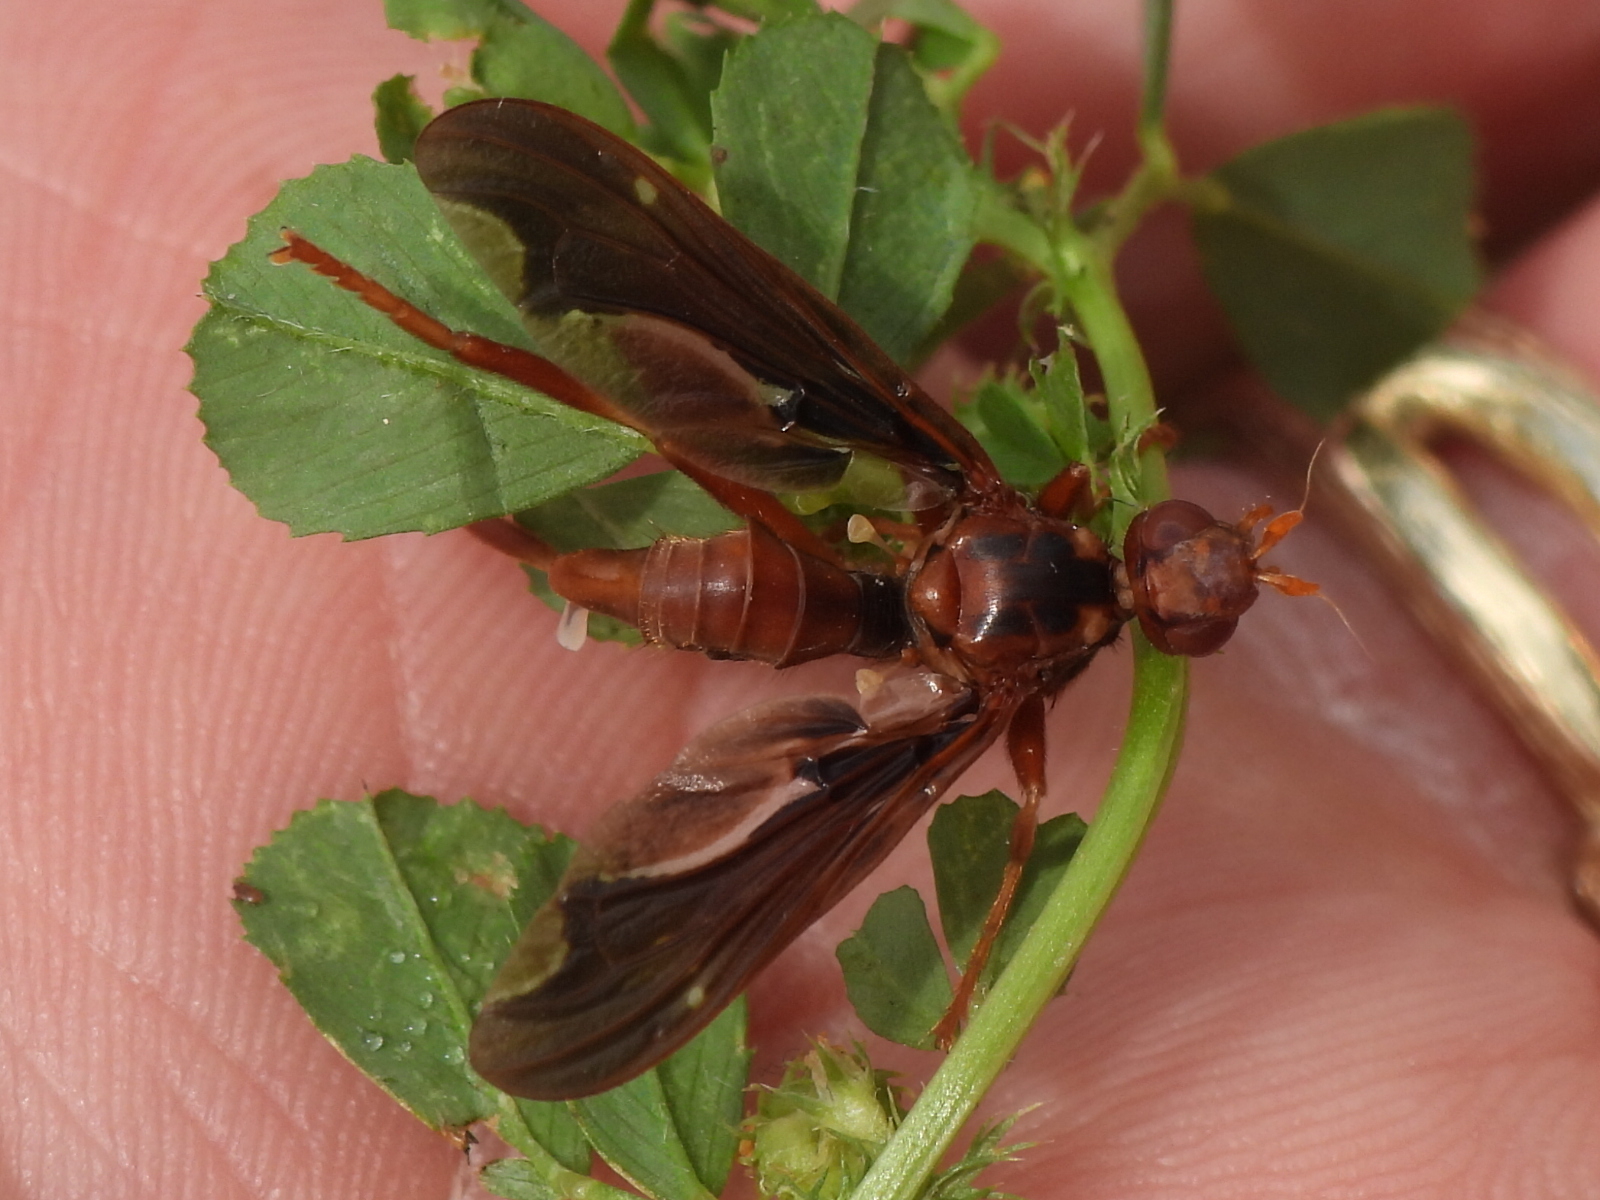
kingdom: Animalia
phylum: Arthropoda
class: Insecta
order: Diptera
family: Pyrgotidae
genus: Pyrgota
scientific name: Pyrgota undata
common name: Waved light fly
